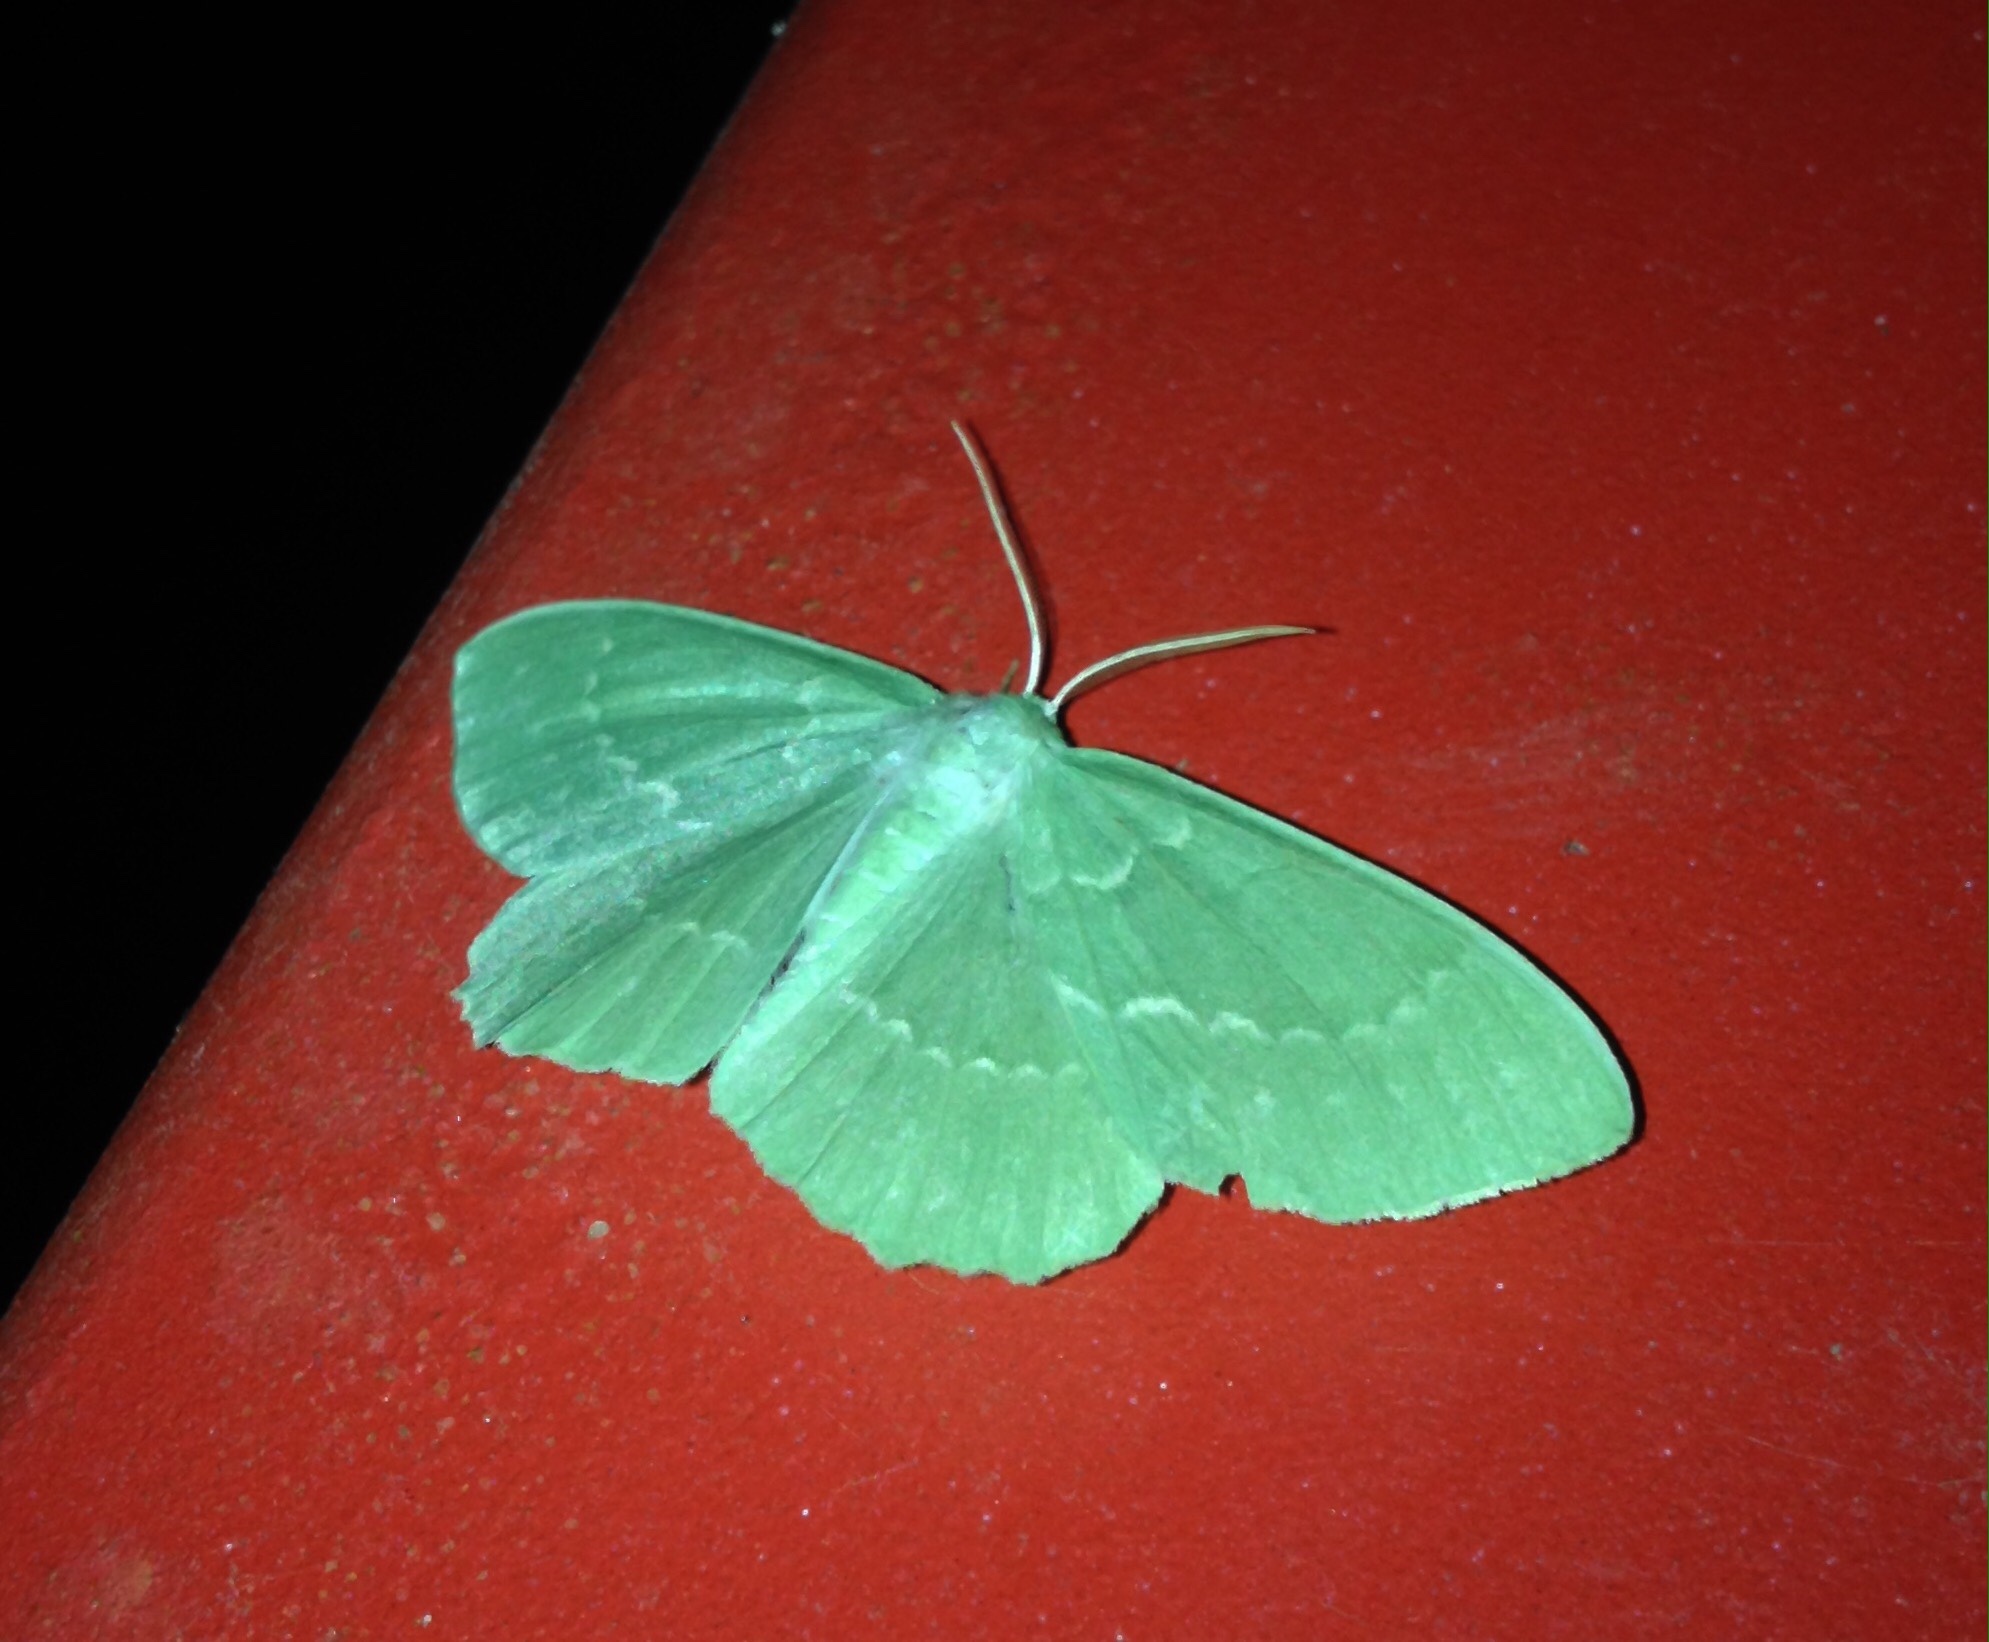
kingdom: Animalia
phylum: Arthropoda
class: Insecta
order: Lepidoptera
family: Geometridae
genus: Geometra
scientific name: Geometra papilionaria
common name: Large emerald
